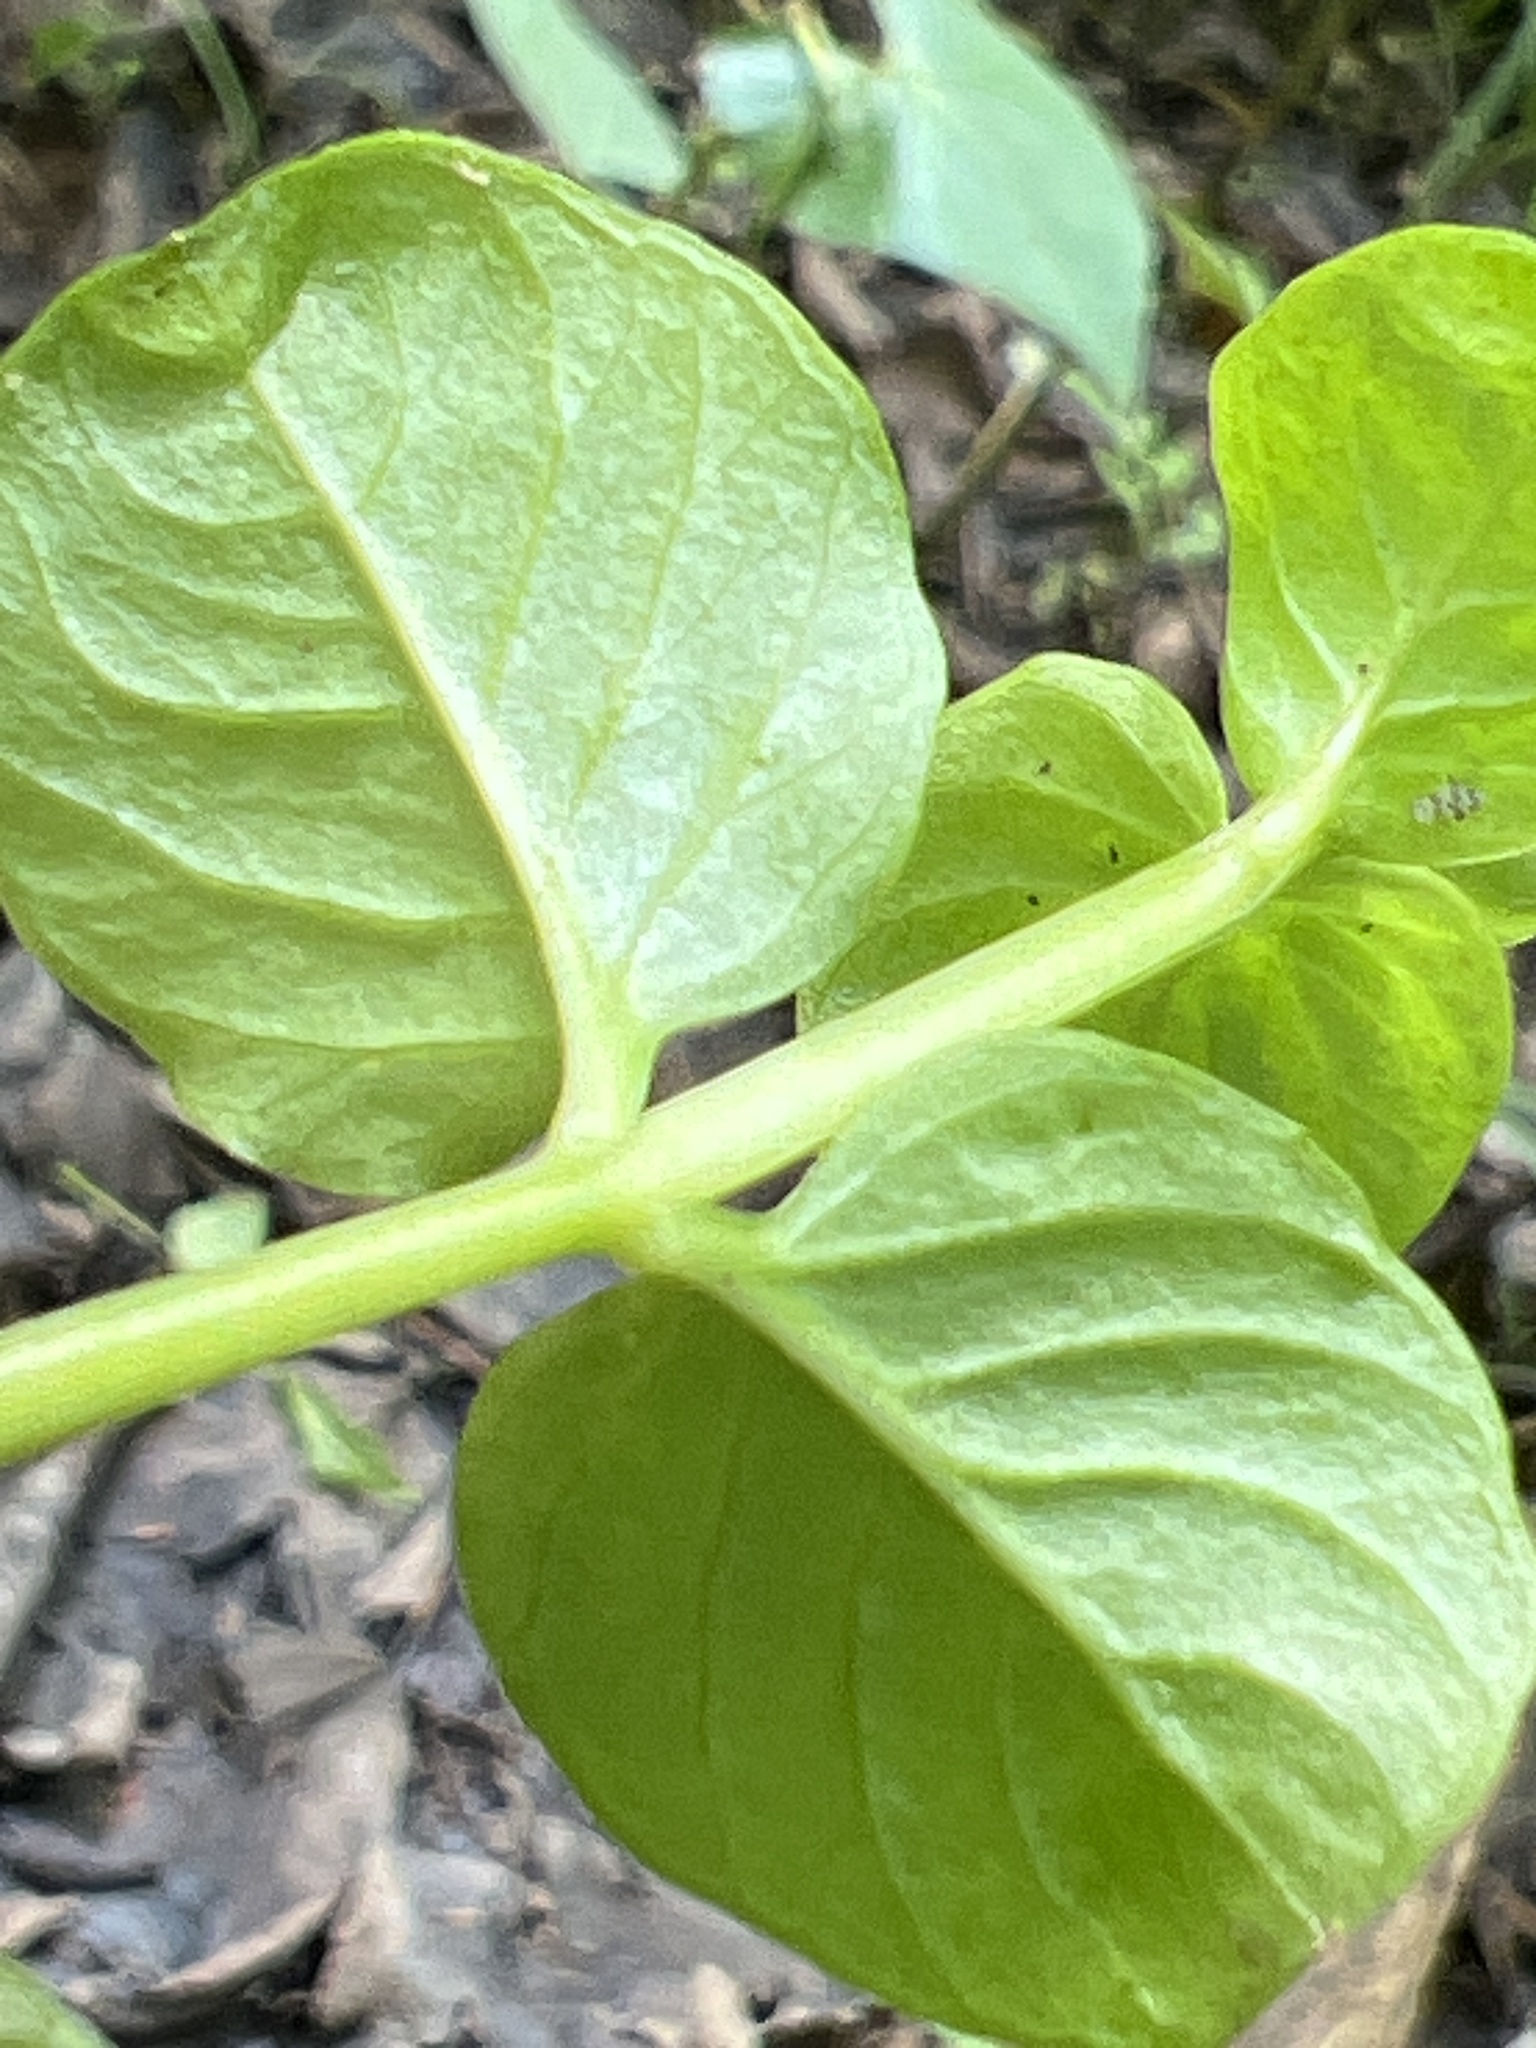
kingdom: Plantae
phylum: Tracheophyta
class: Magnoliopsida
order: Ericales
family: Primulaceae
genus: Lysimachia
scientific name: Lysimachia nummularia
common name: Moneywort
